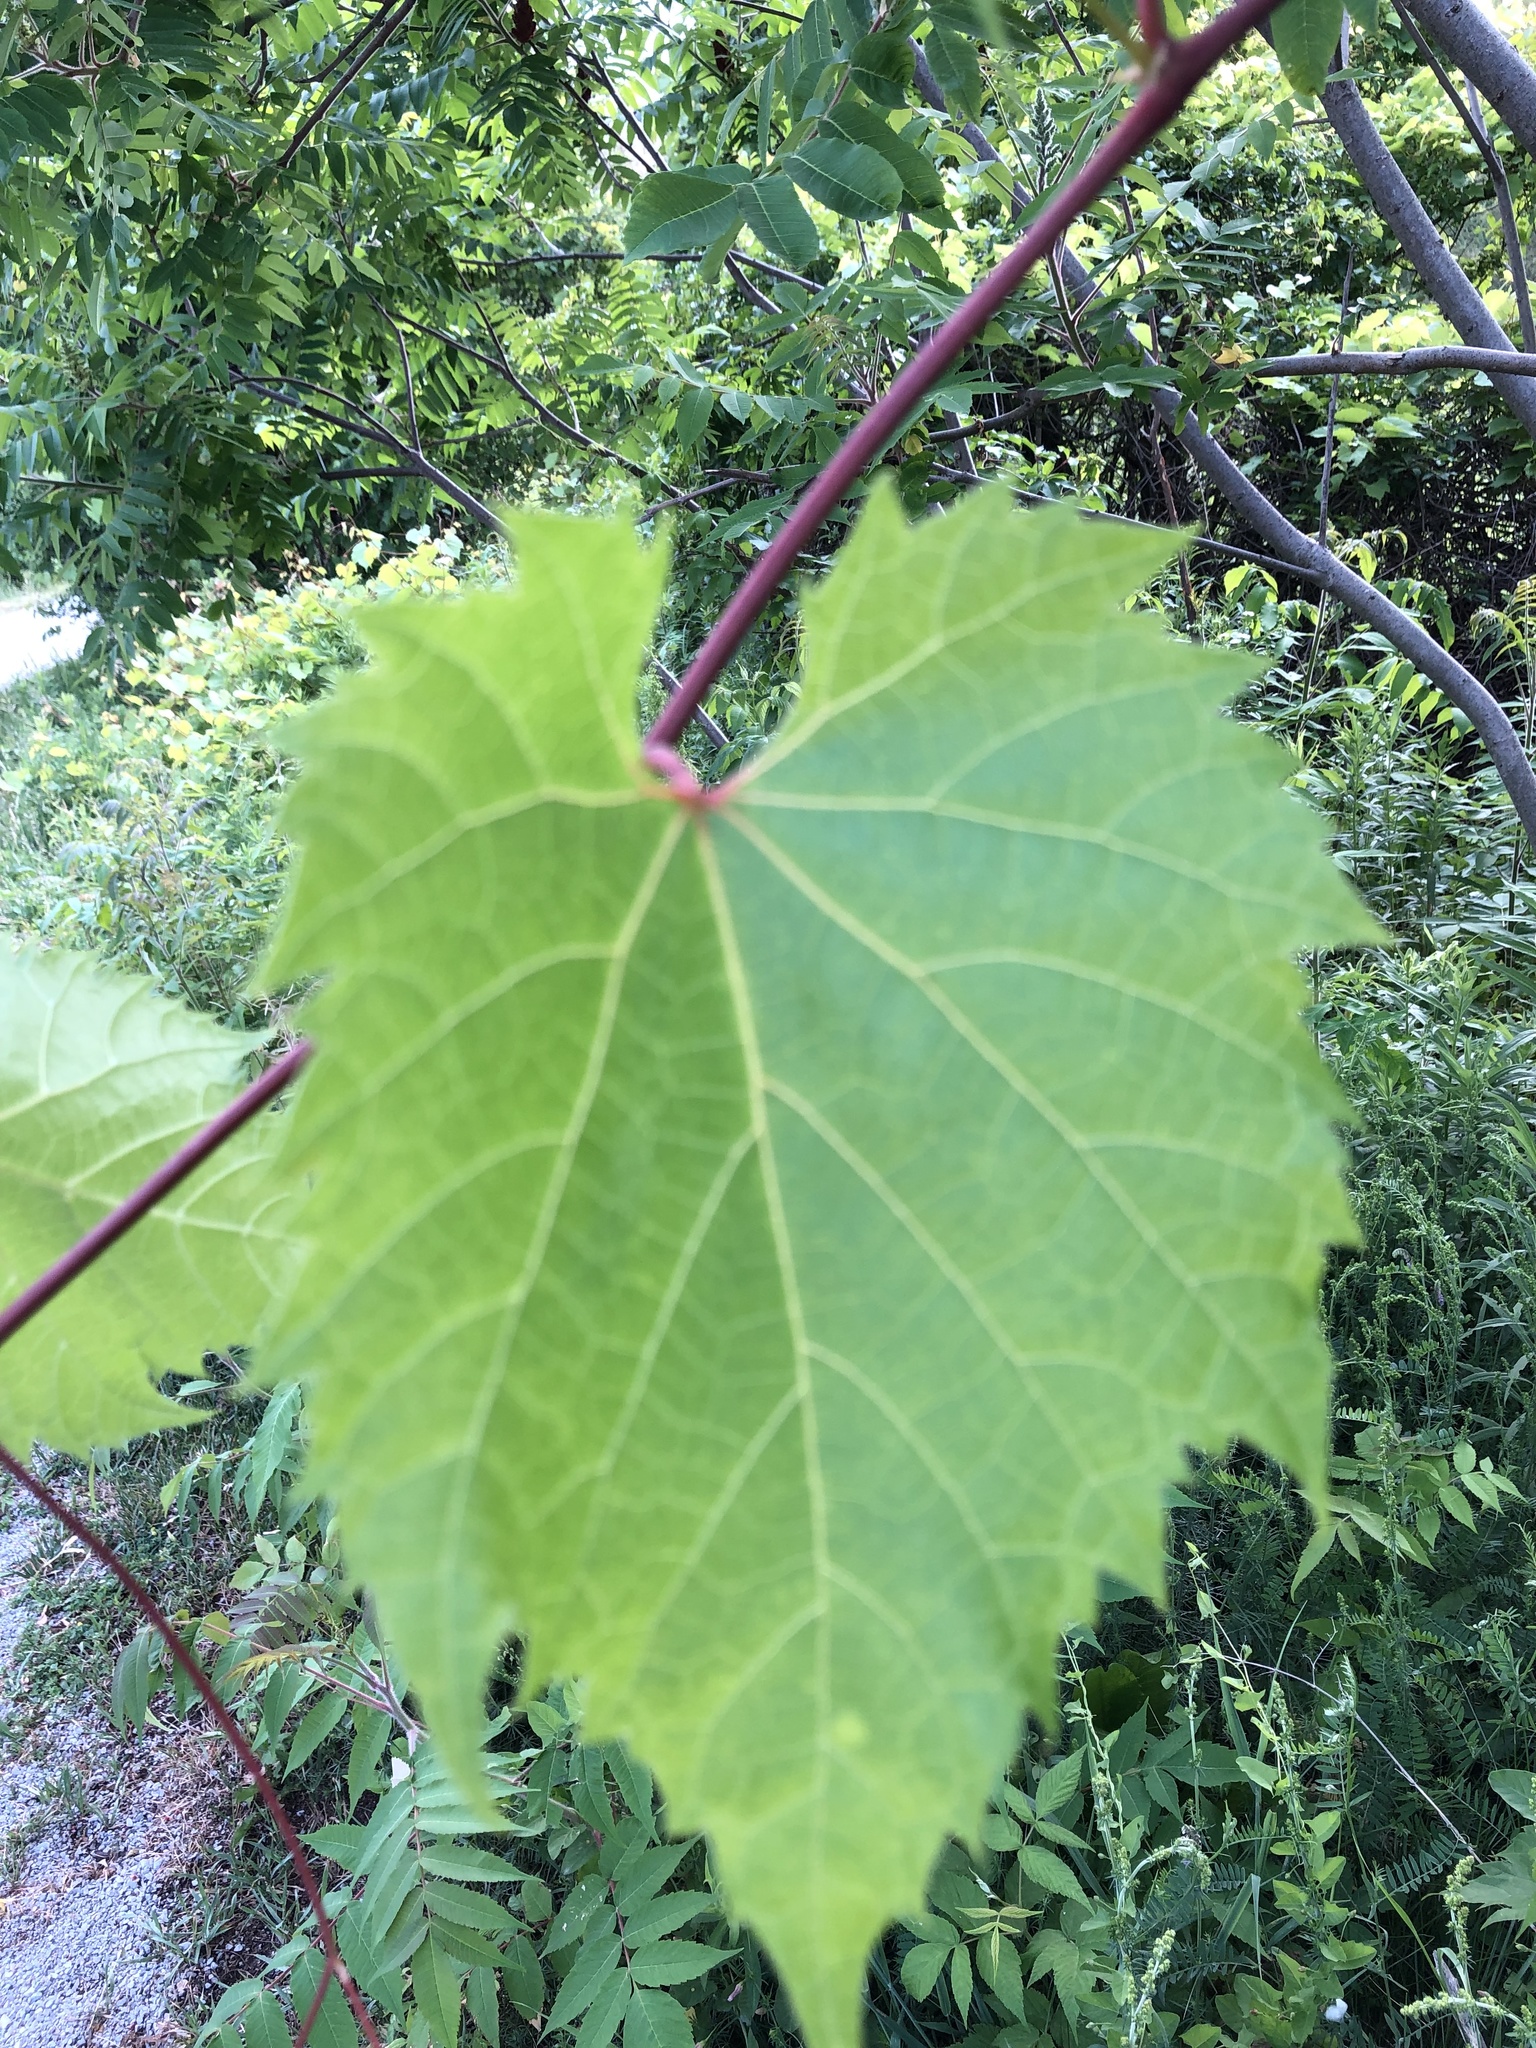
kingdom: Plantae
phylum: Tracheophyta
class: Magnoliopsida
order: Vitales
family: Vitaceae
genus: Vitis
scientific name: Vitis riparia
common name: Frost grape
